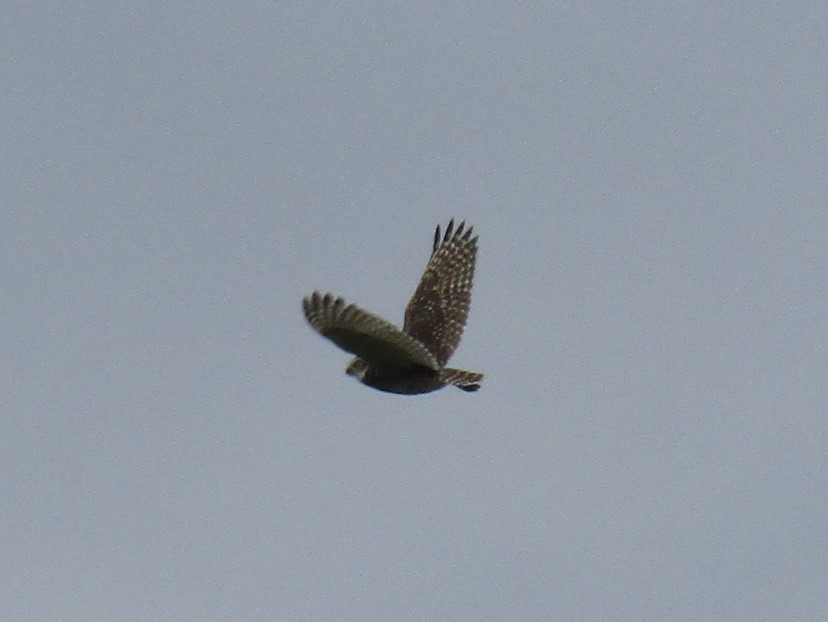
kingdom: Animalia
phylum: Chordata
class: Aves
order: Strigiformes
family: Strigidae
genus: Athene
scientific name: Athene cunicularia
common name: Burrowing owl
